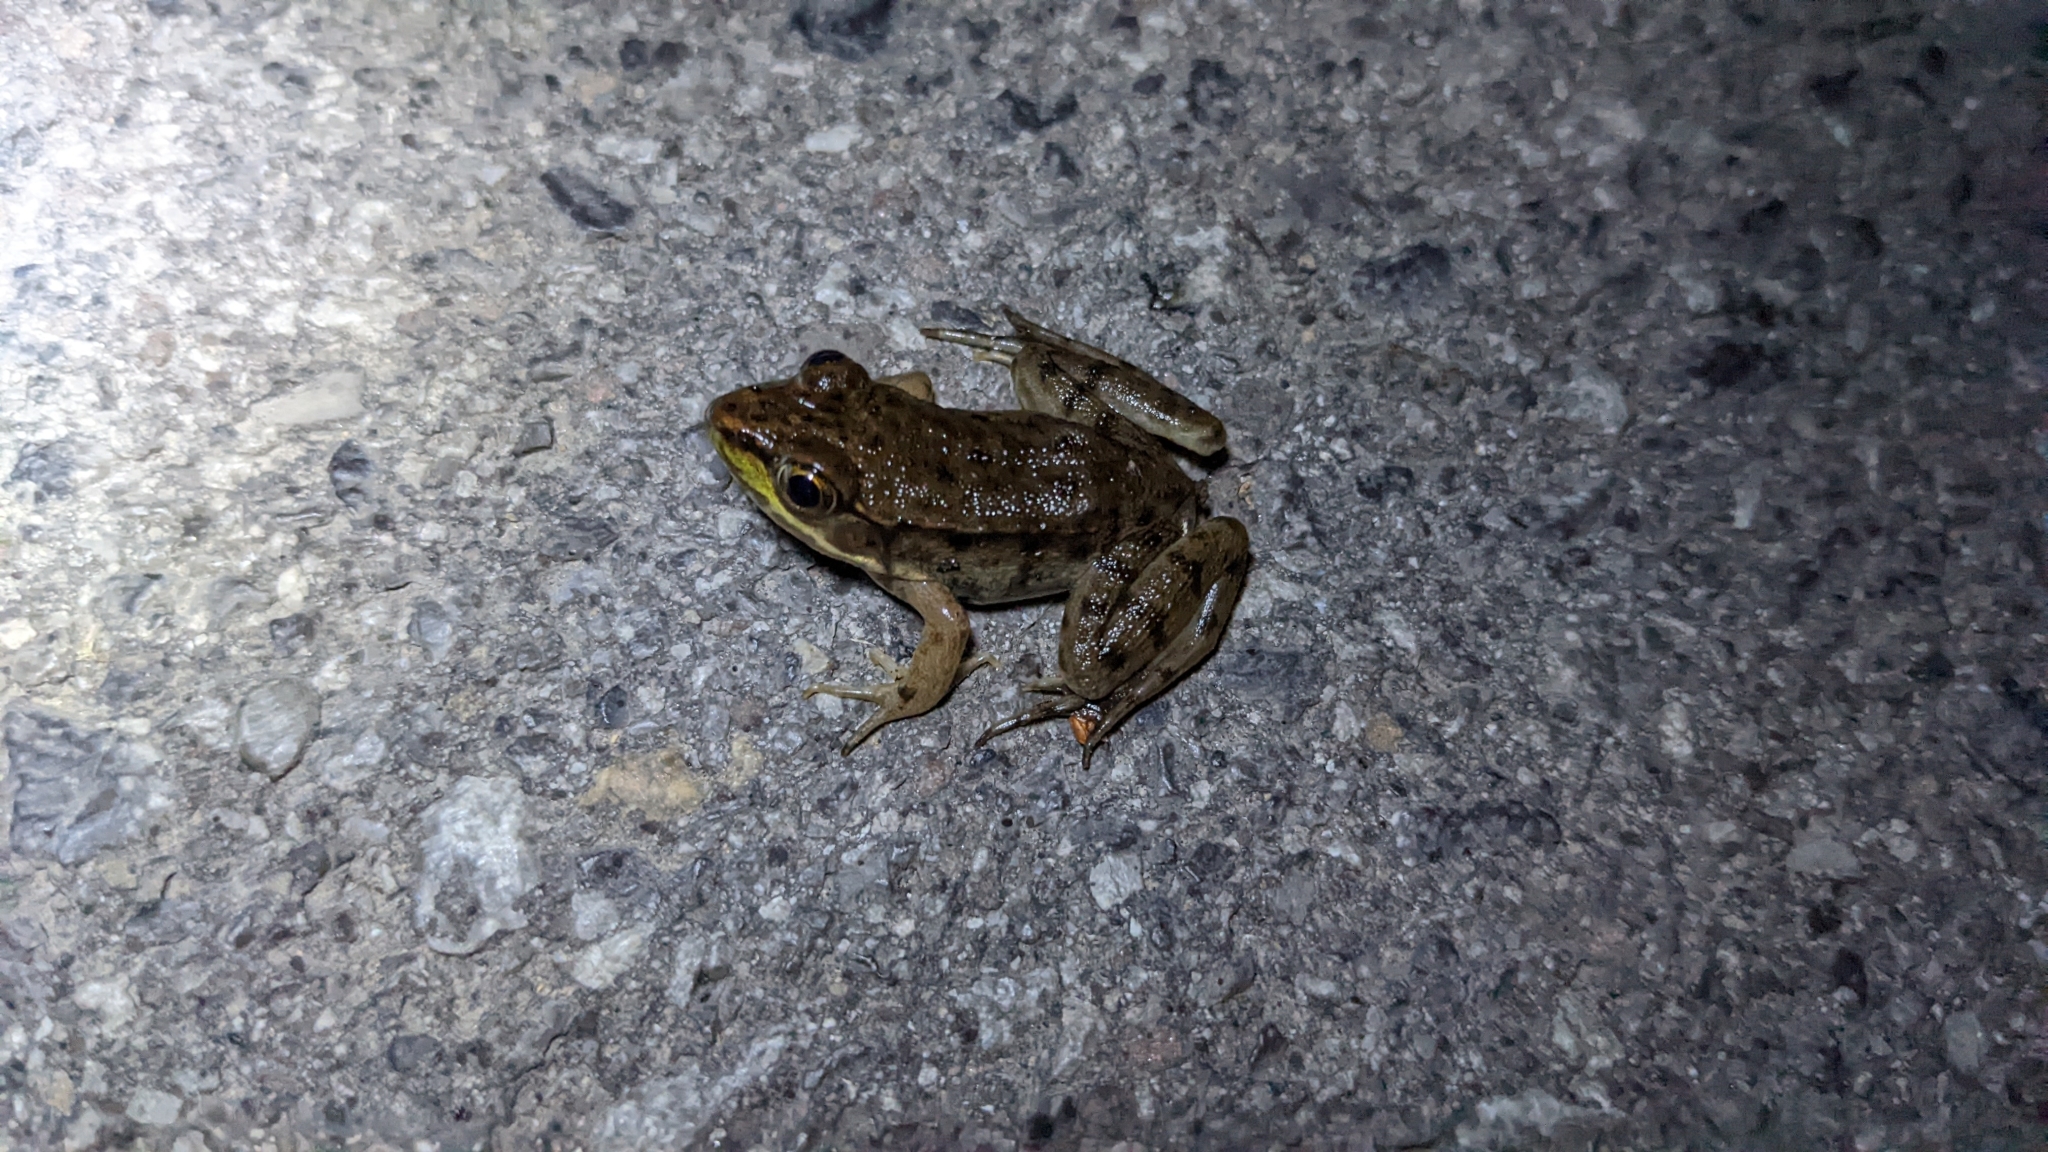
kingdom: Animalia
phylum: Chordata
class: Amphibia
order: Anura
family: Ranidae
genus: Lithobates
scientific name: Lithobates clamitans
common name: Green frog
